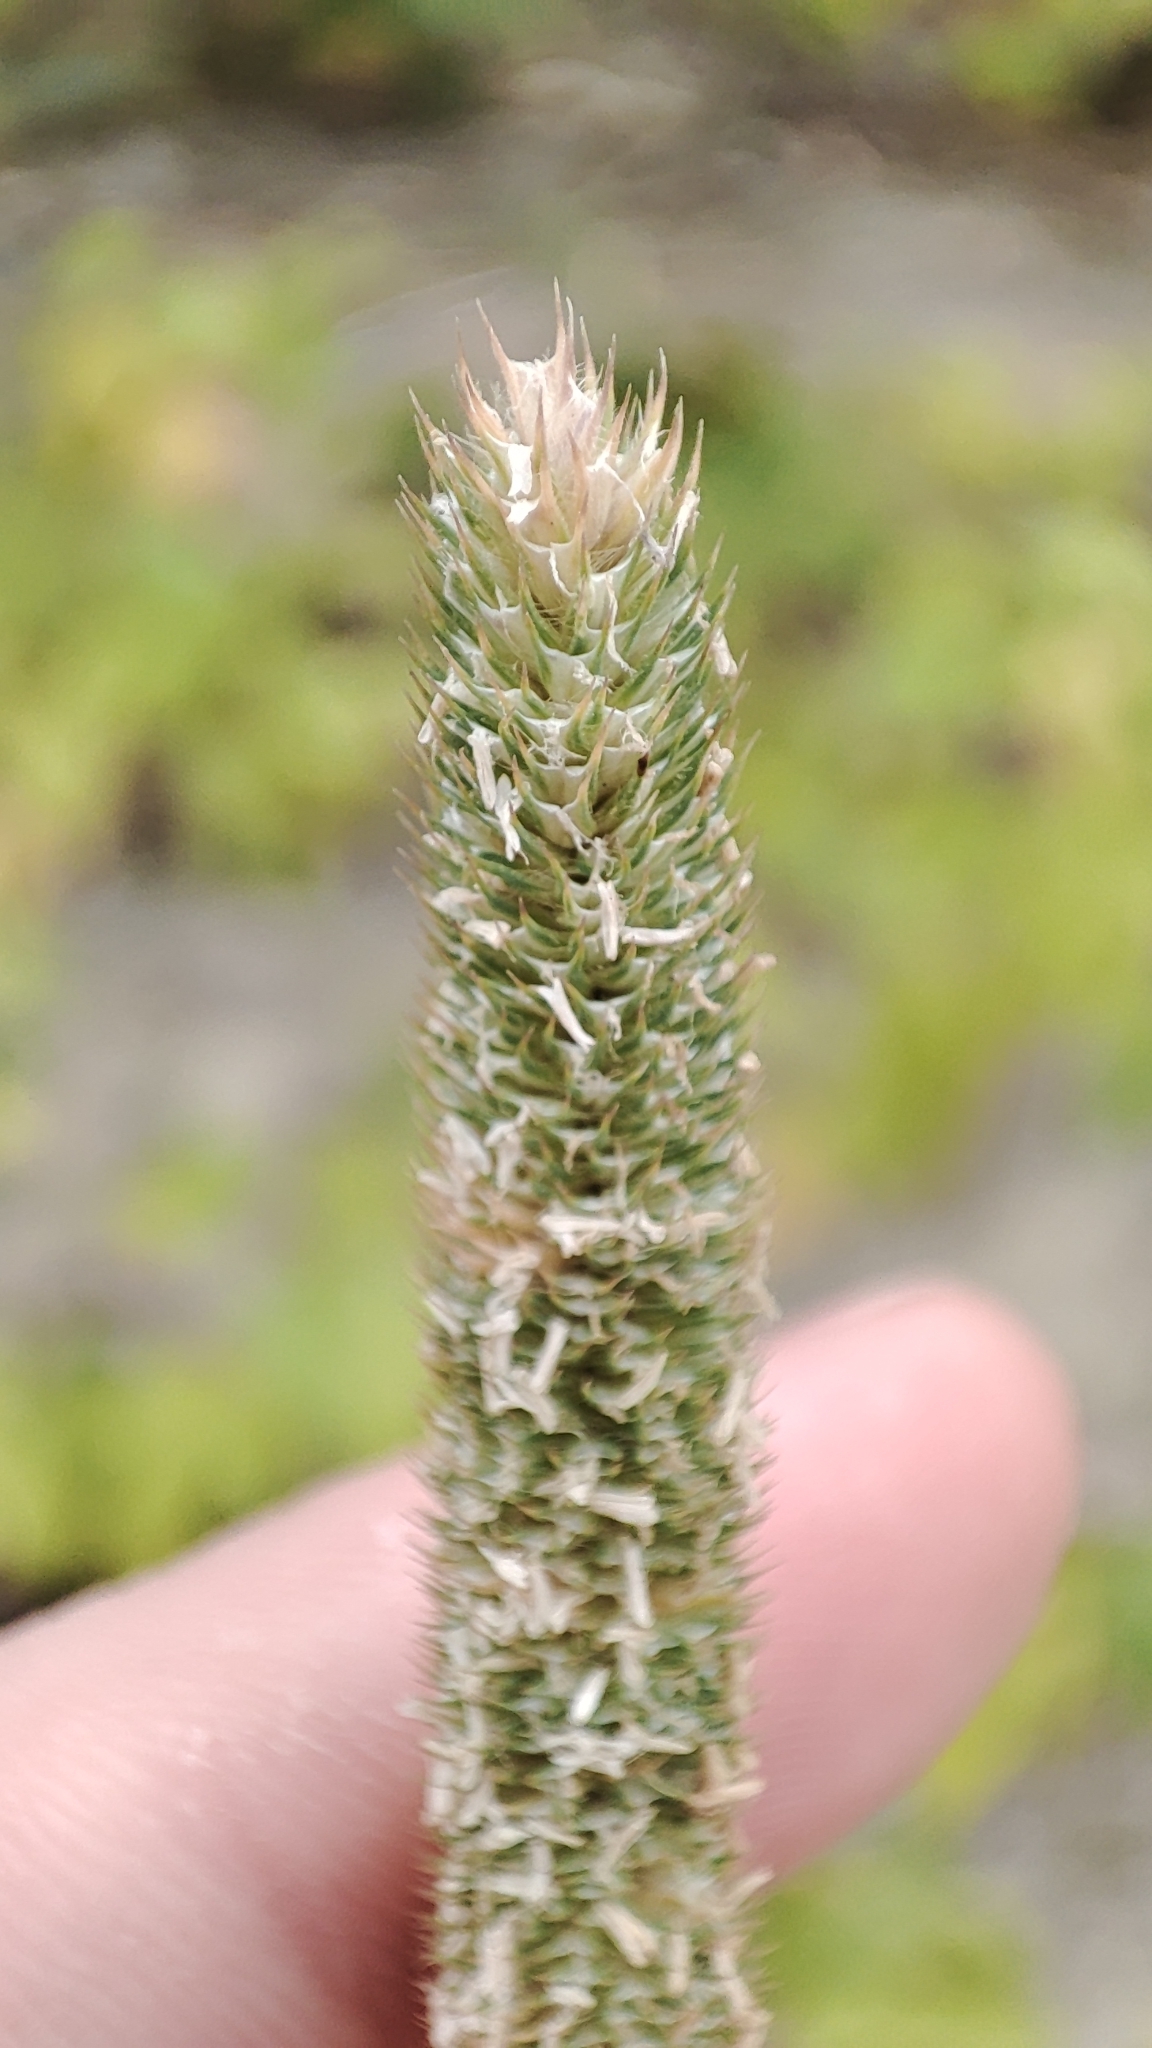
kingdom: Plantae
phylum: Tracheophyta
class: Liliopsida
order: Poales
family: Poaceae
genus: Phleum
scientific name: Phleum pratense
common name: Timothy grass
